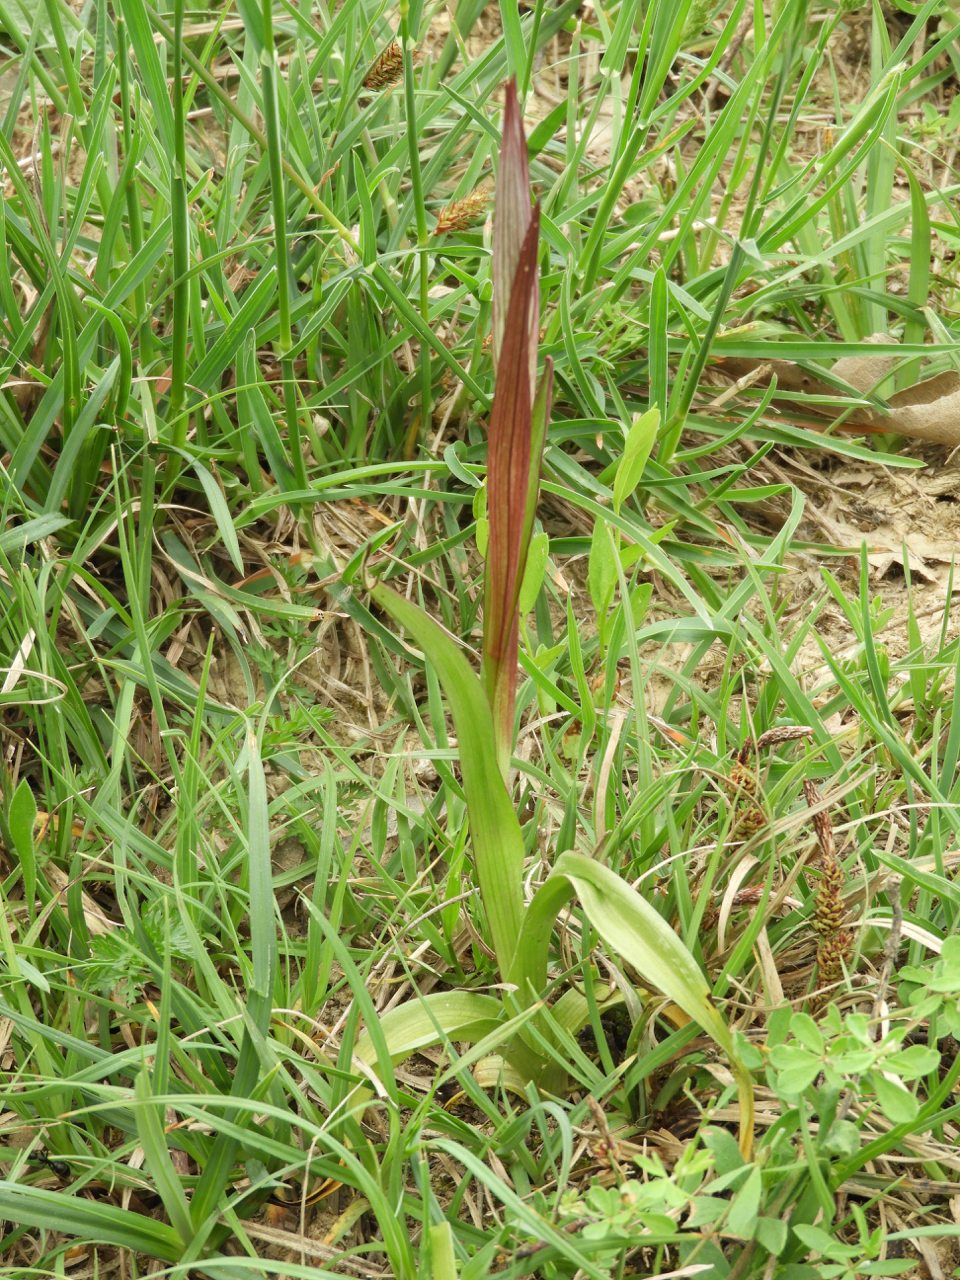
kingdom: Plantae
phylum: Tracheophyta
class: Liliopsida
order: Asparagales
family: Orchidaceae
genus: Serapias
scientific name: Serapias vomeracea
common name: Long-lipped tongue-orchid
